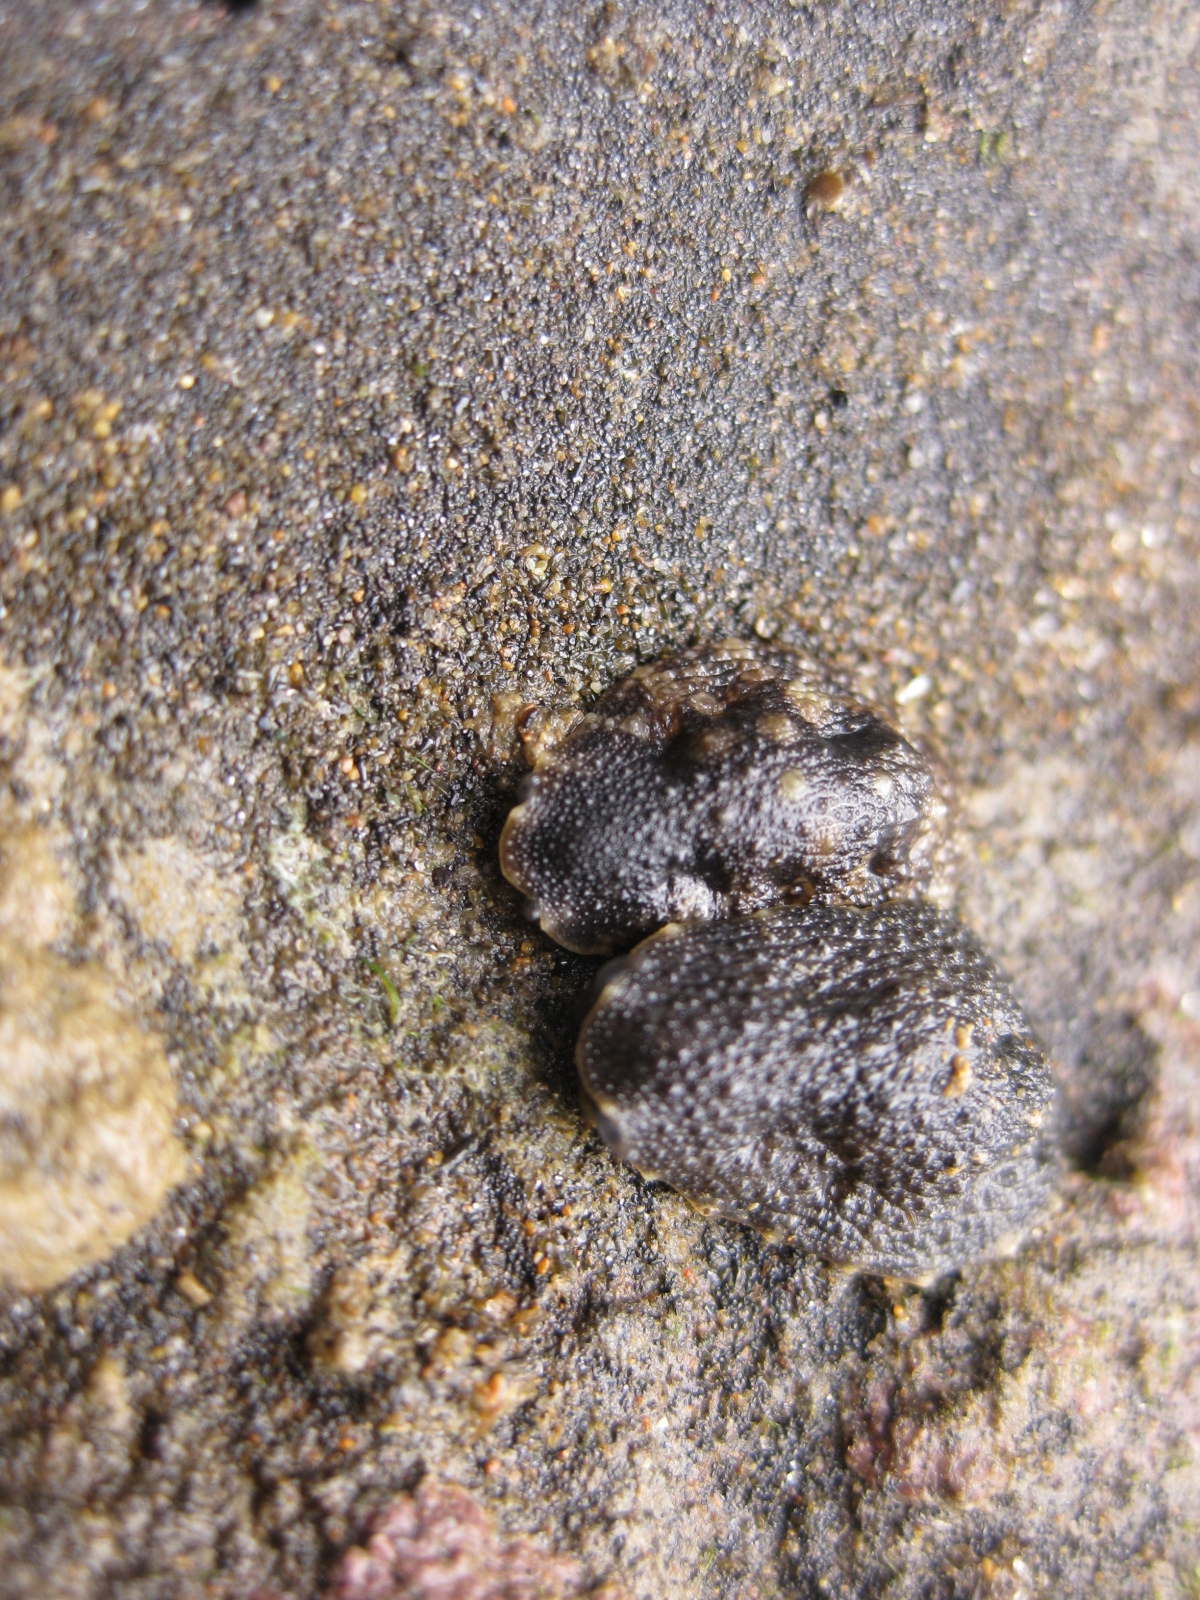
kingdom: Animalia
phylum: Mollusca
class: Gastropoda
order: Systellommatophora
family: Onchidiidae
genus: Onchidella
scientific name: Onchidella nigricans
